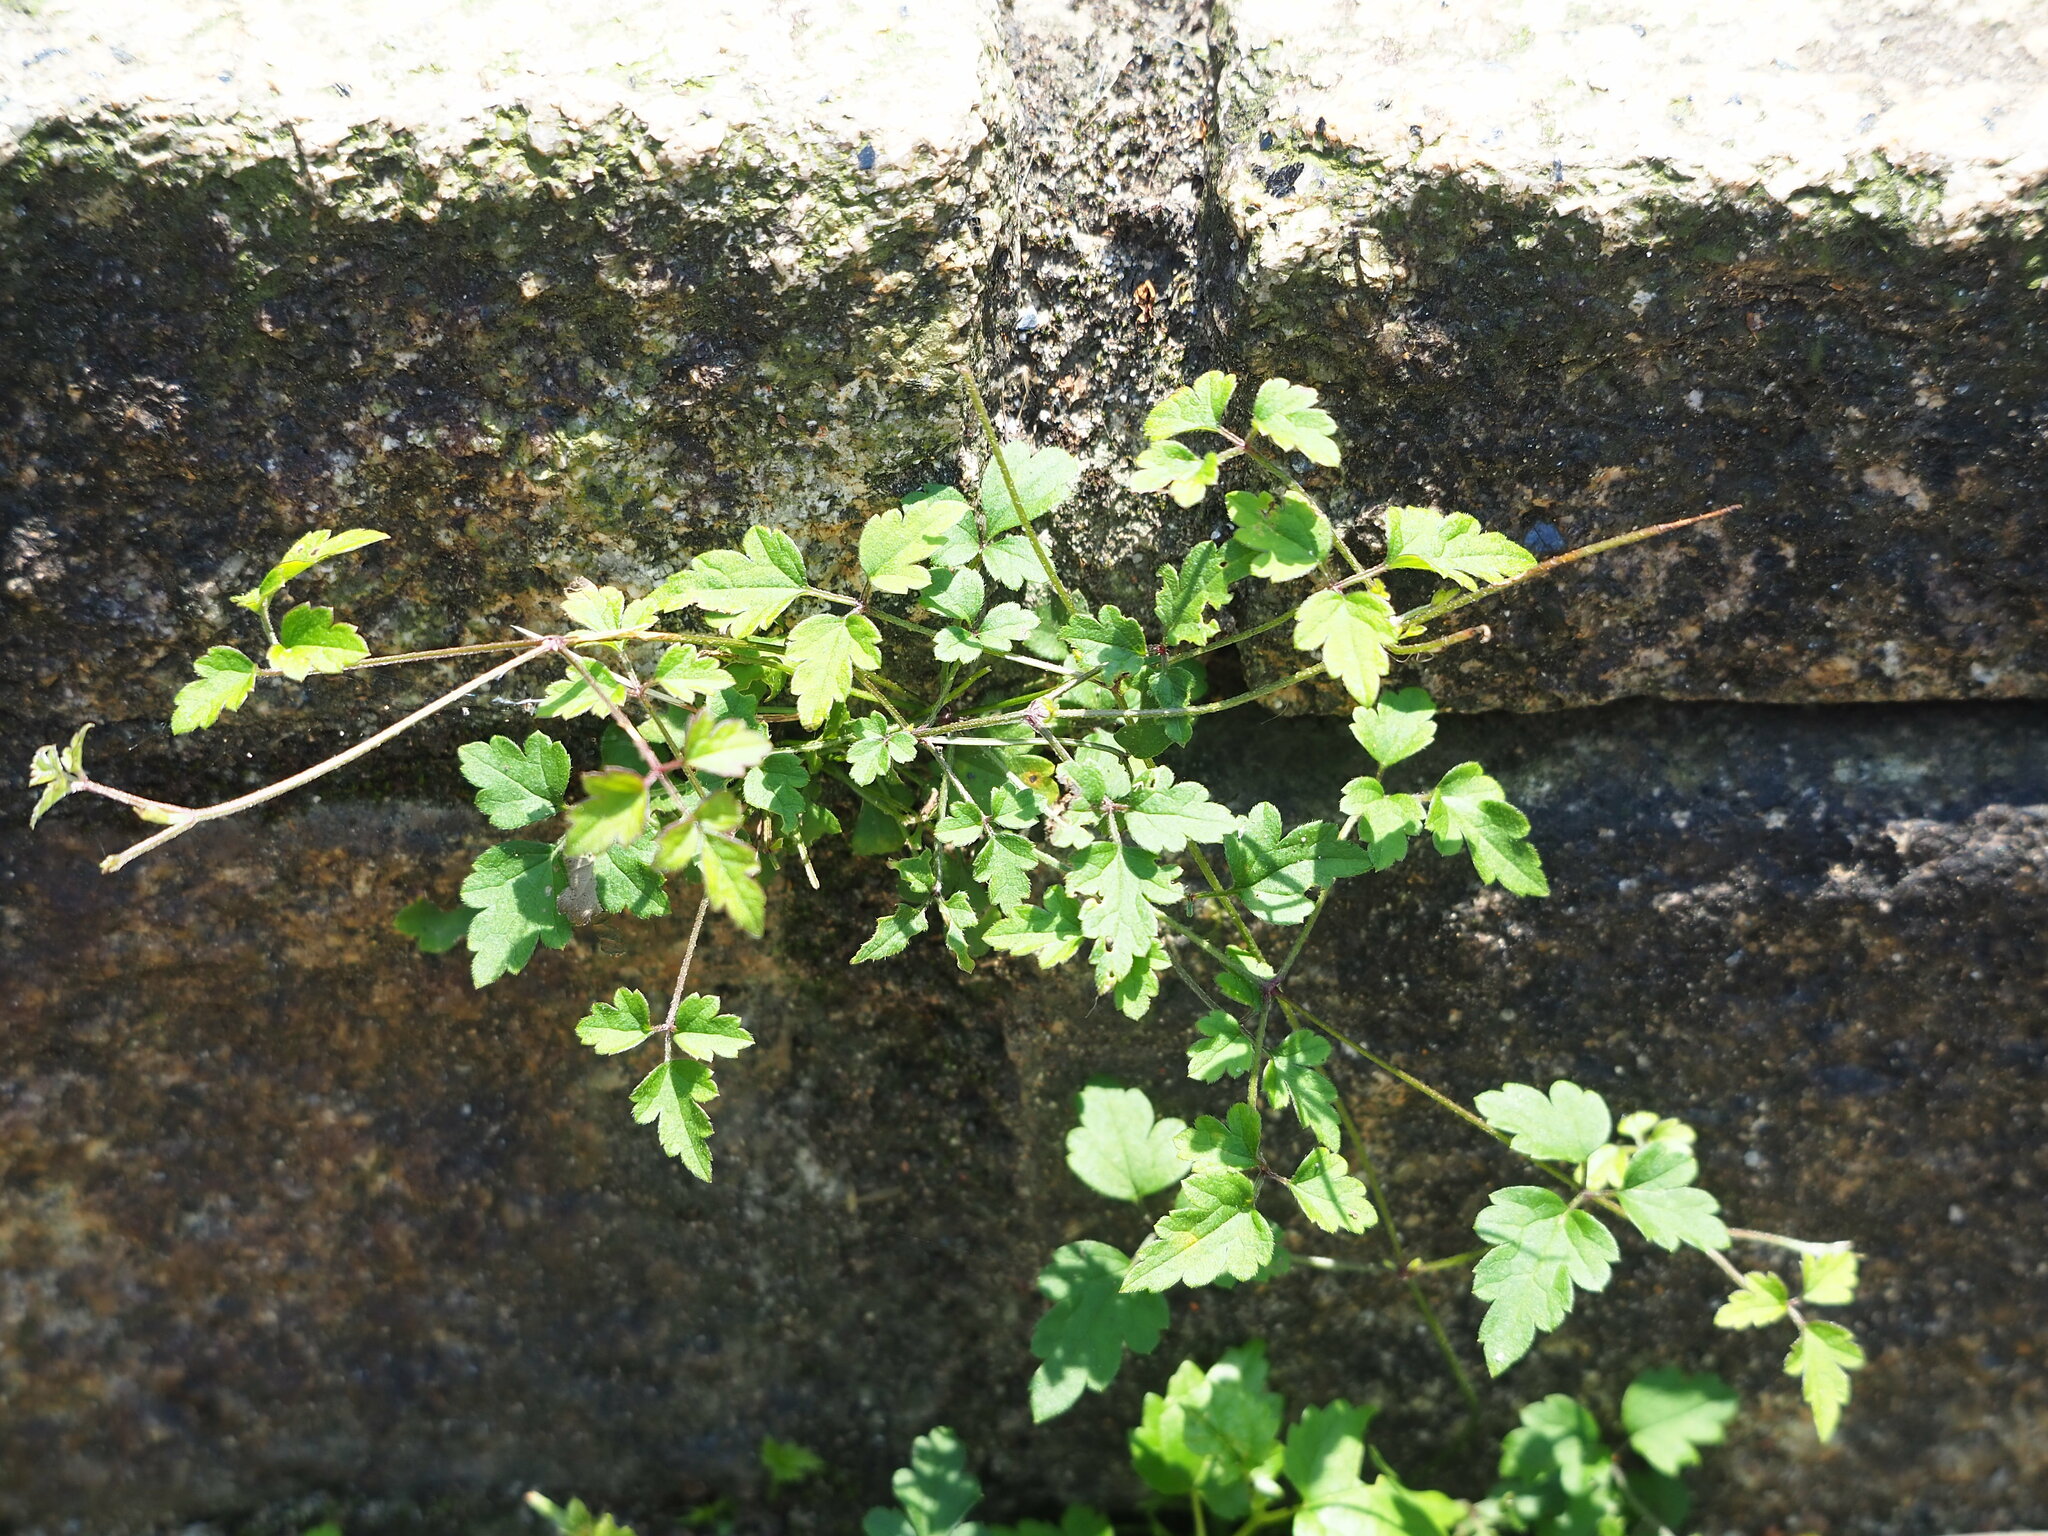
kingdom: Plantae
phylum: Tracheophyta
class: Magnoliopsida
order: Ranunculales
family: Ranunculaceae
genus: Clematis
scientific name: Clematis grata
